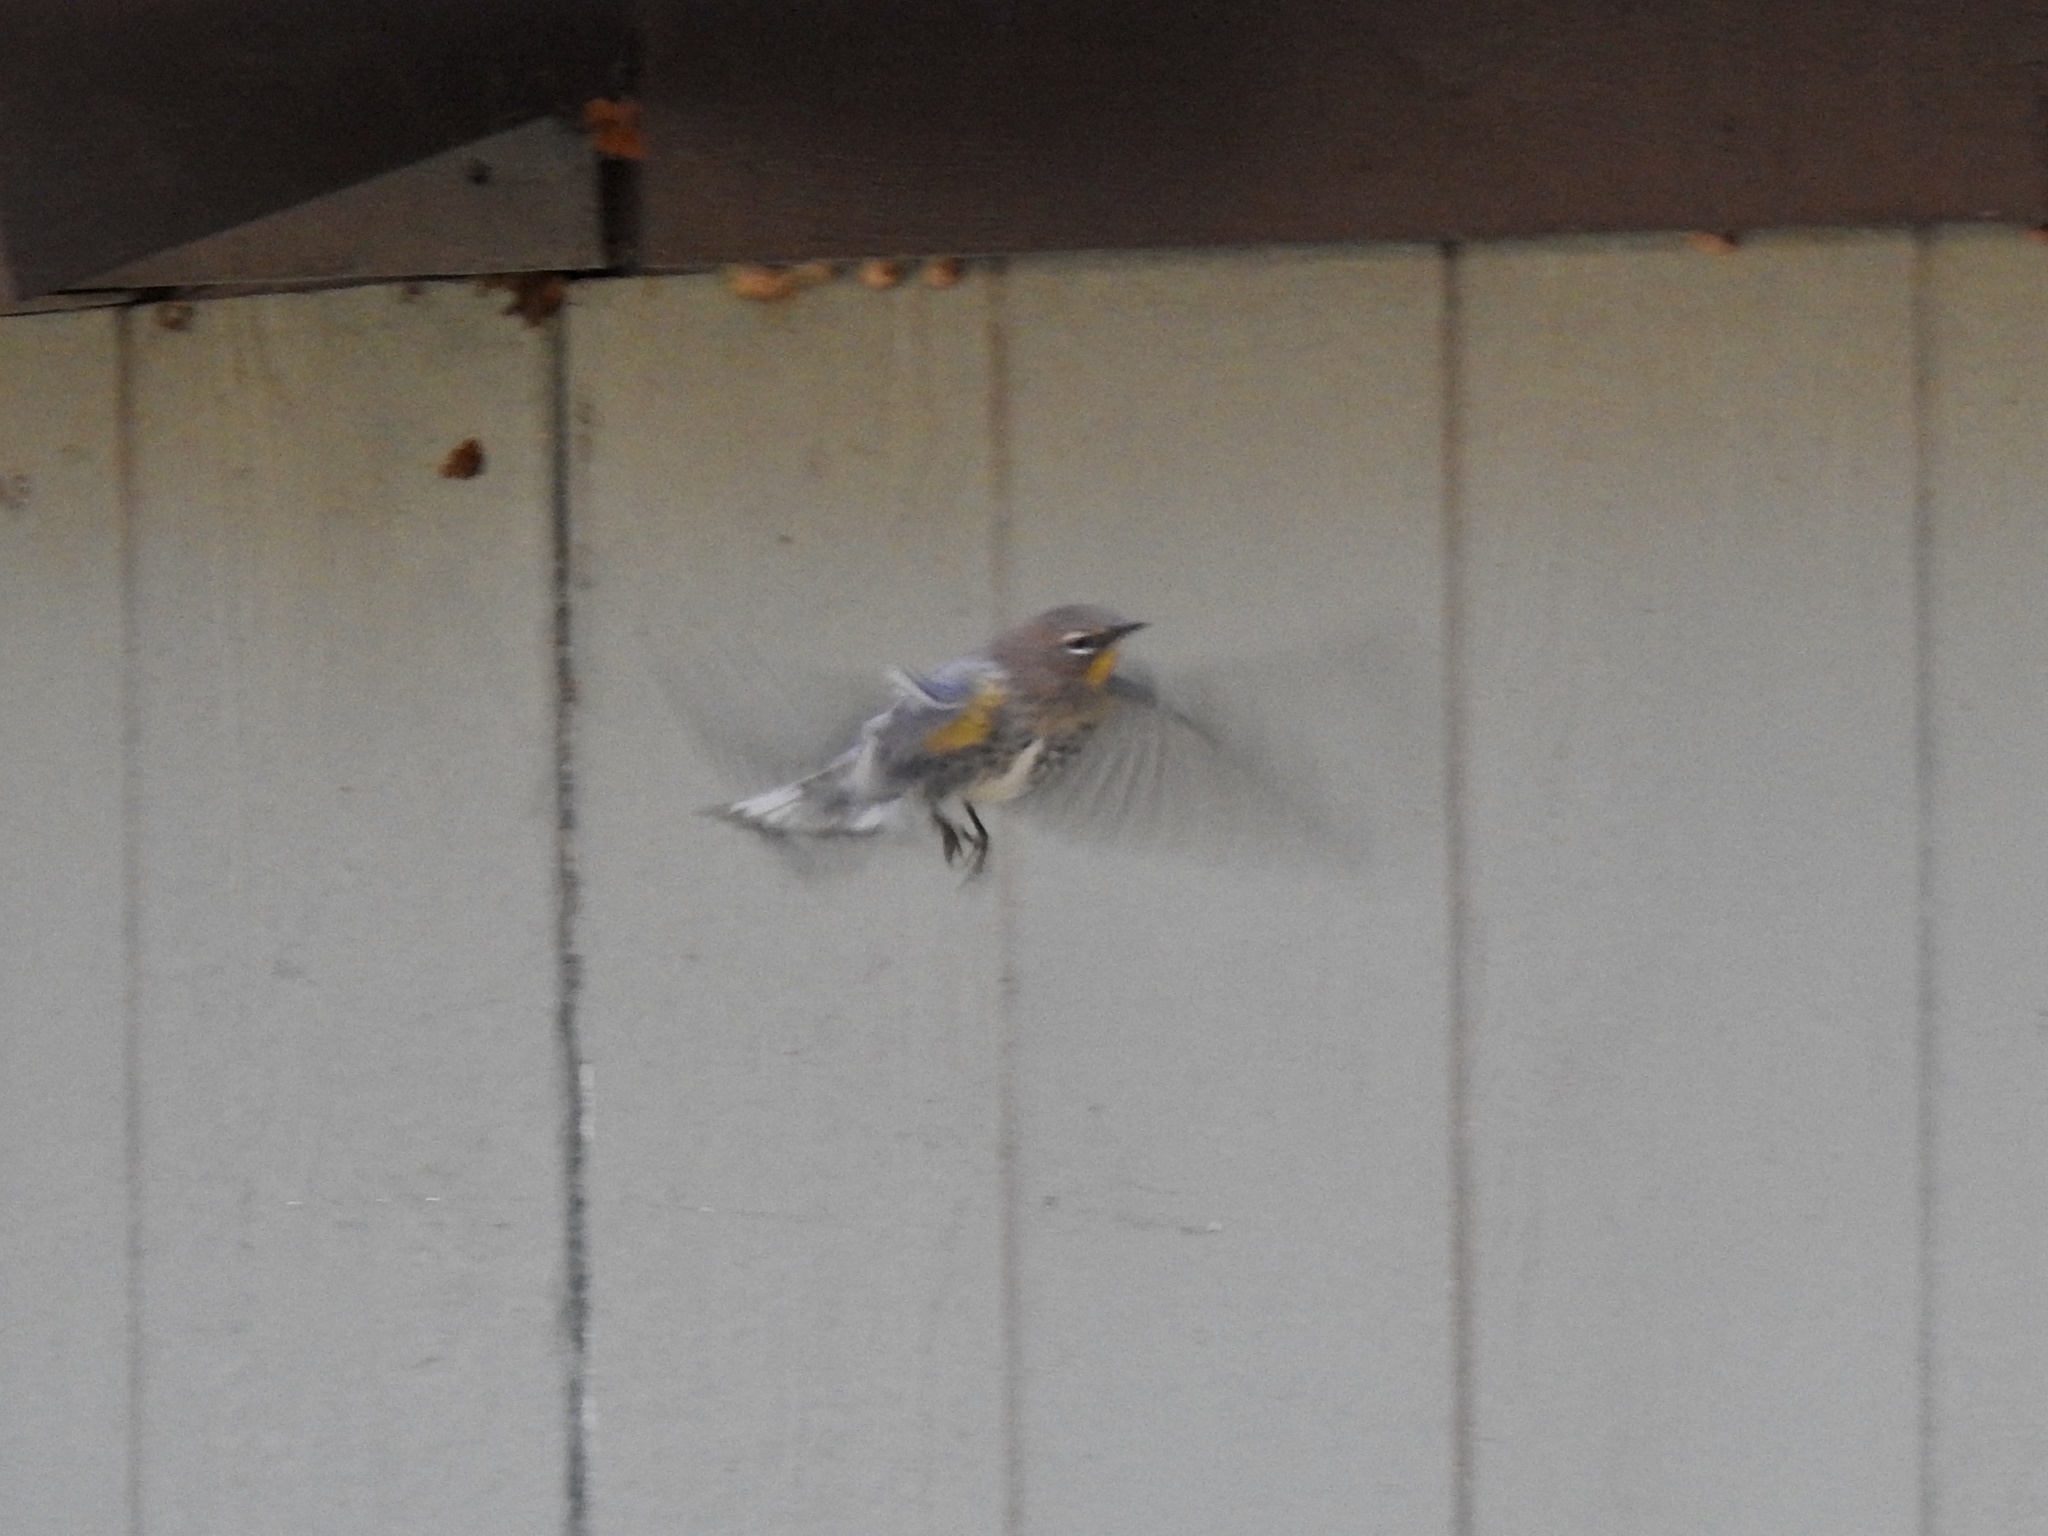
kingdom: Animalia
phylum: Chordata
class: Aves
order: Passeriformes
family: Parulidae
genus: Setophaga
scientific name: Setophaga coronata
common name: Myrtle warbler
